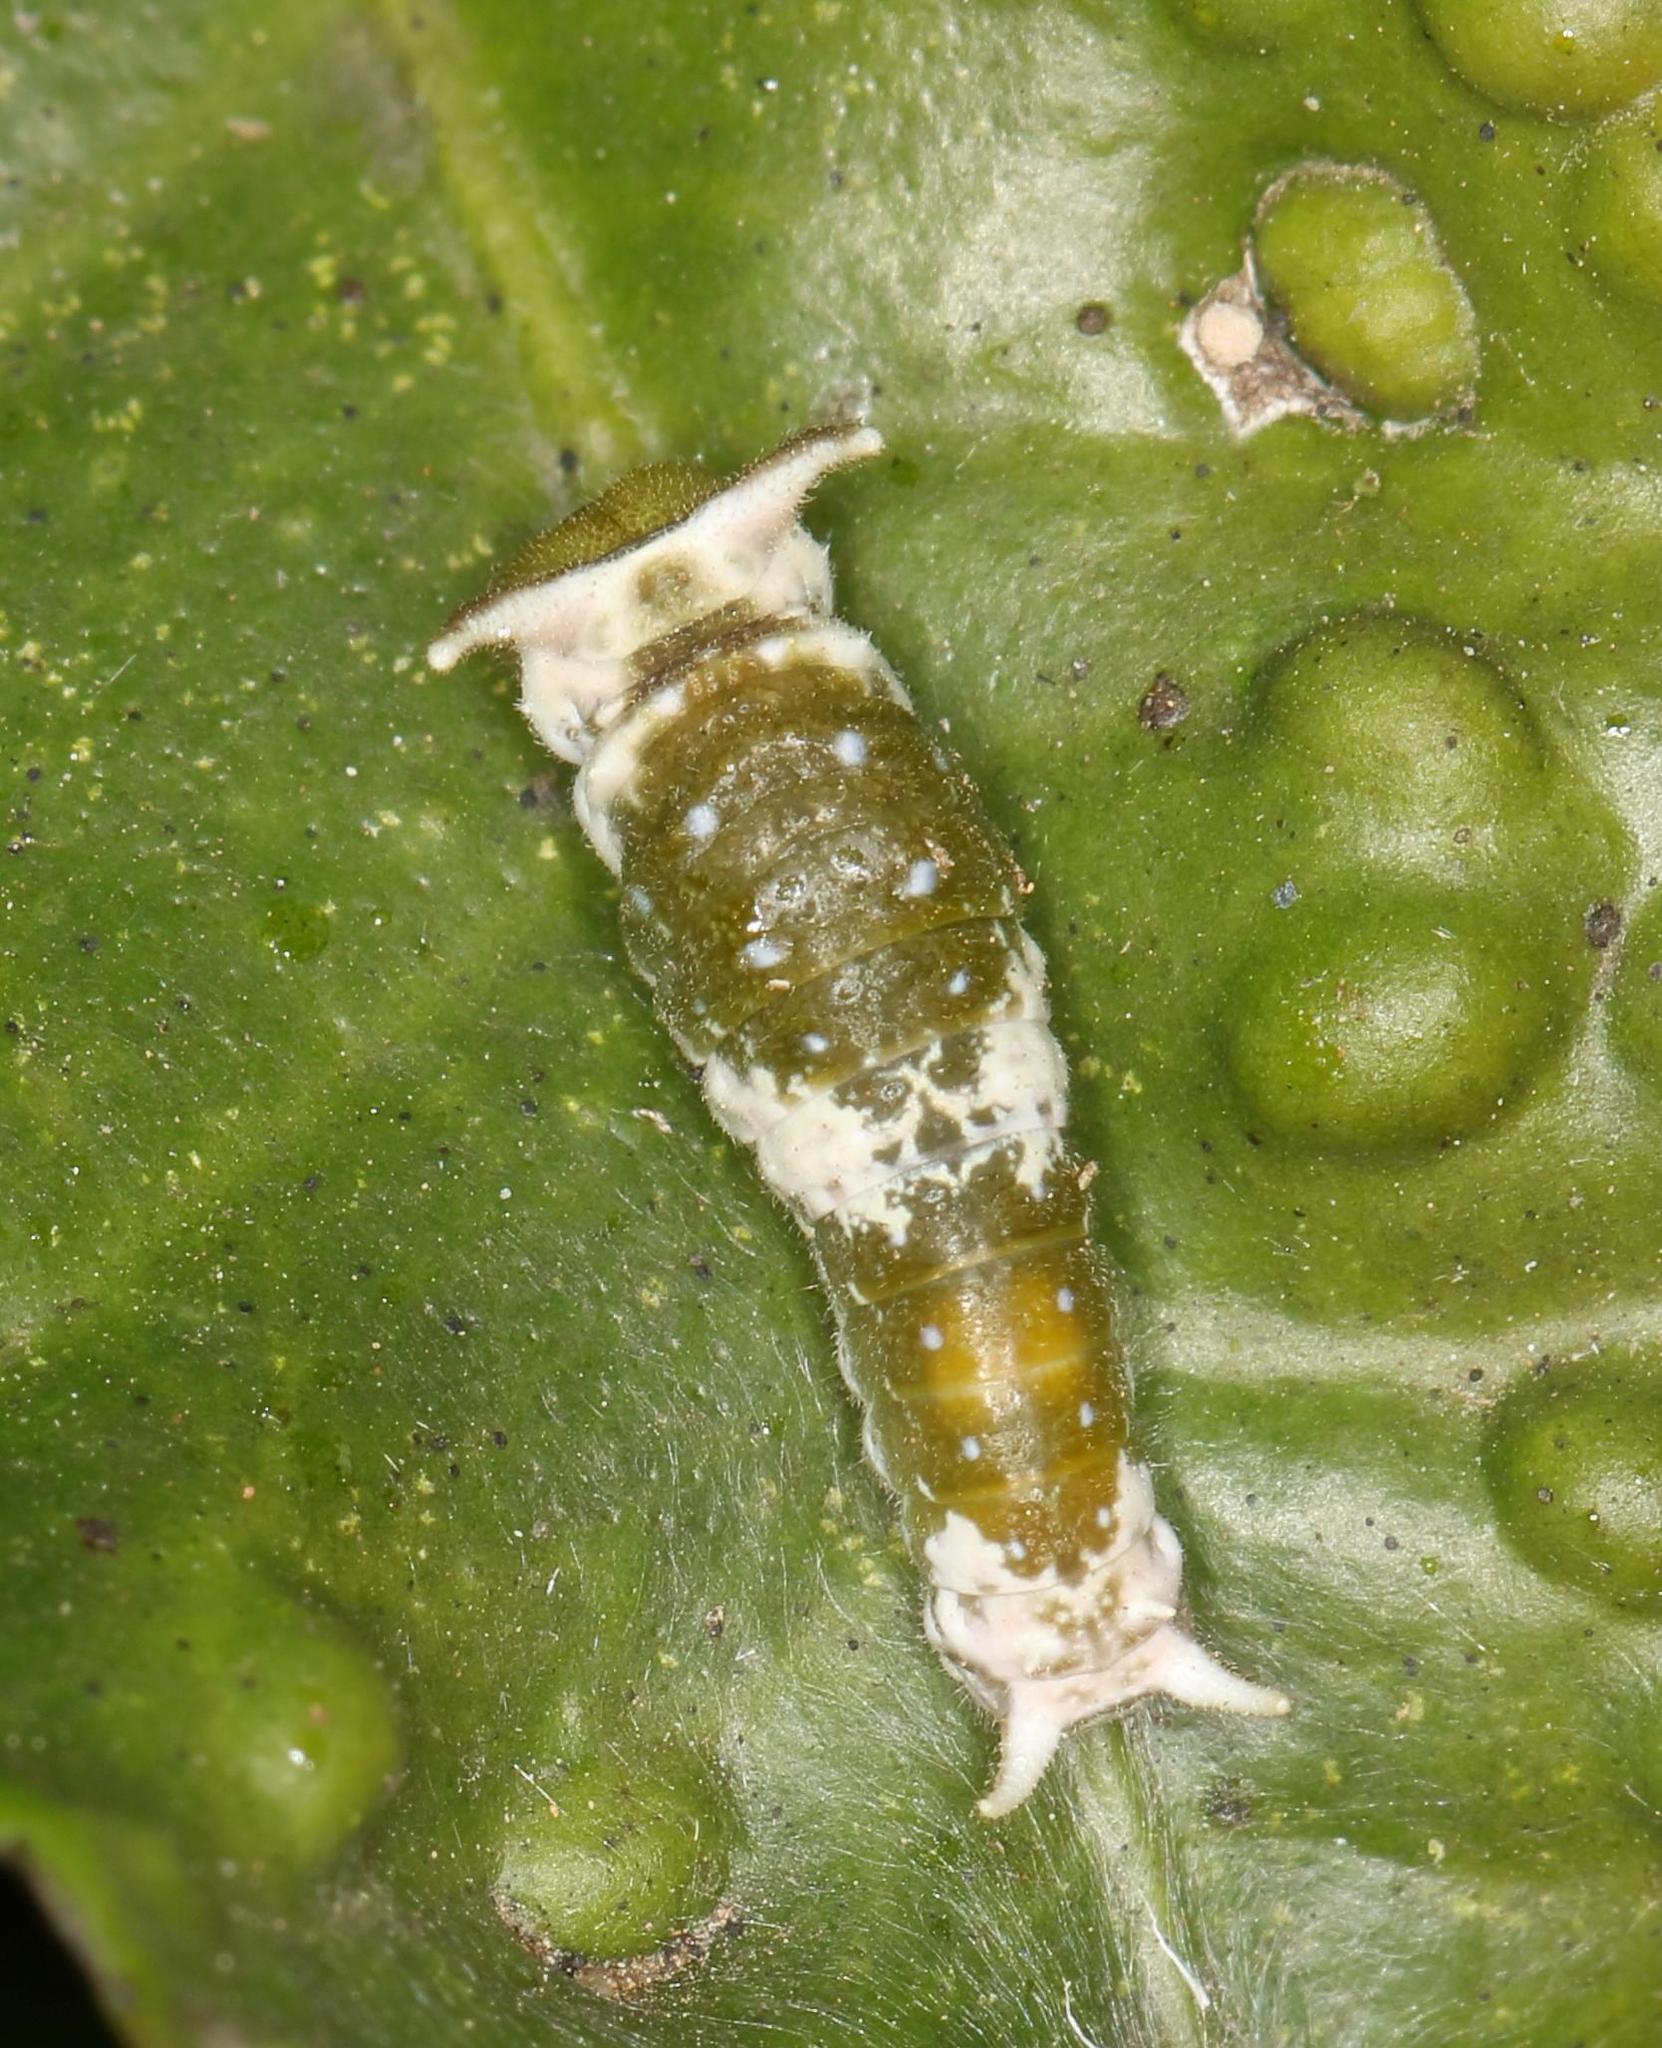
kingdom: Animalia
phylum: Arthropoda
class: Insecta
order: Lepidoptera
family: Papilionidae
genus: Papilio
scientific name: Papilio dardanus
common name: Flying handkerchief
